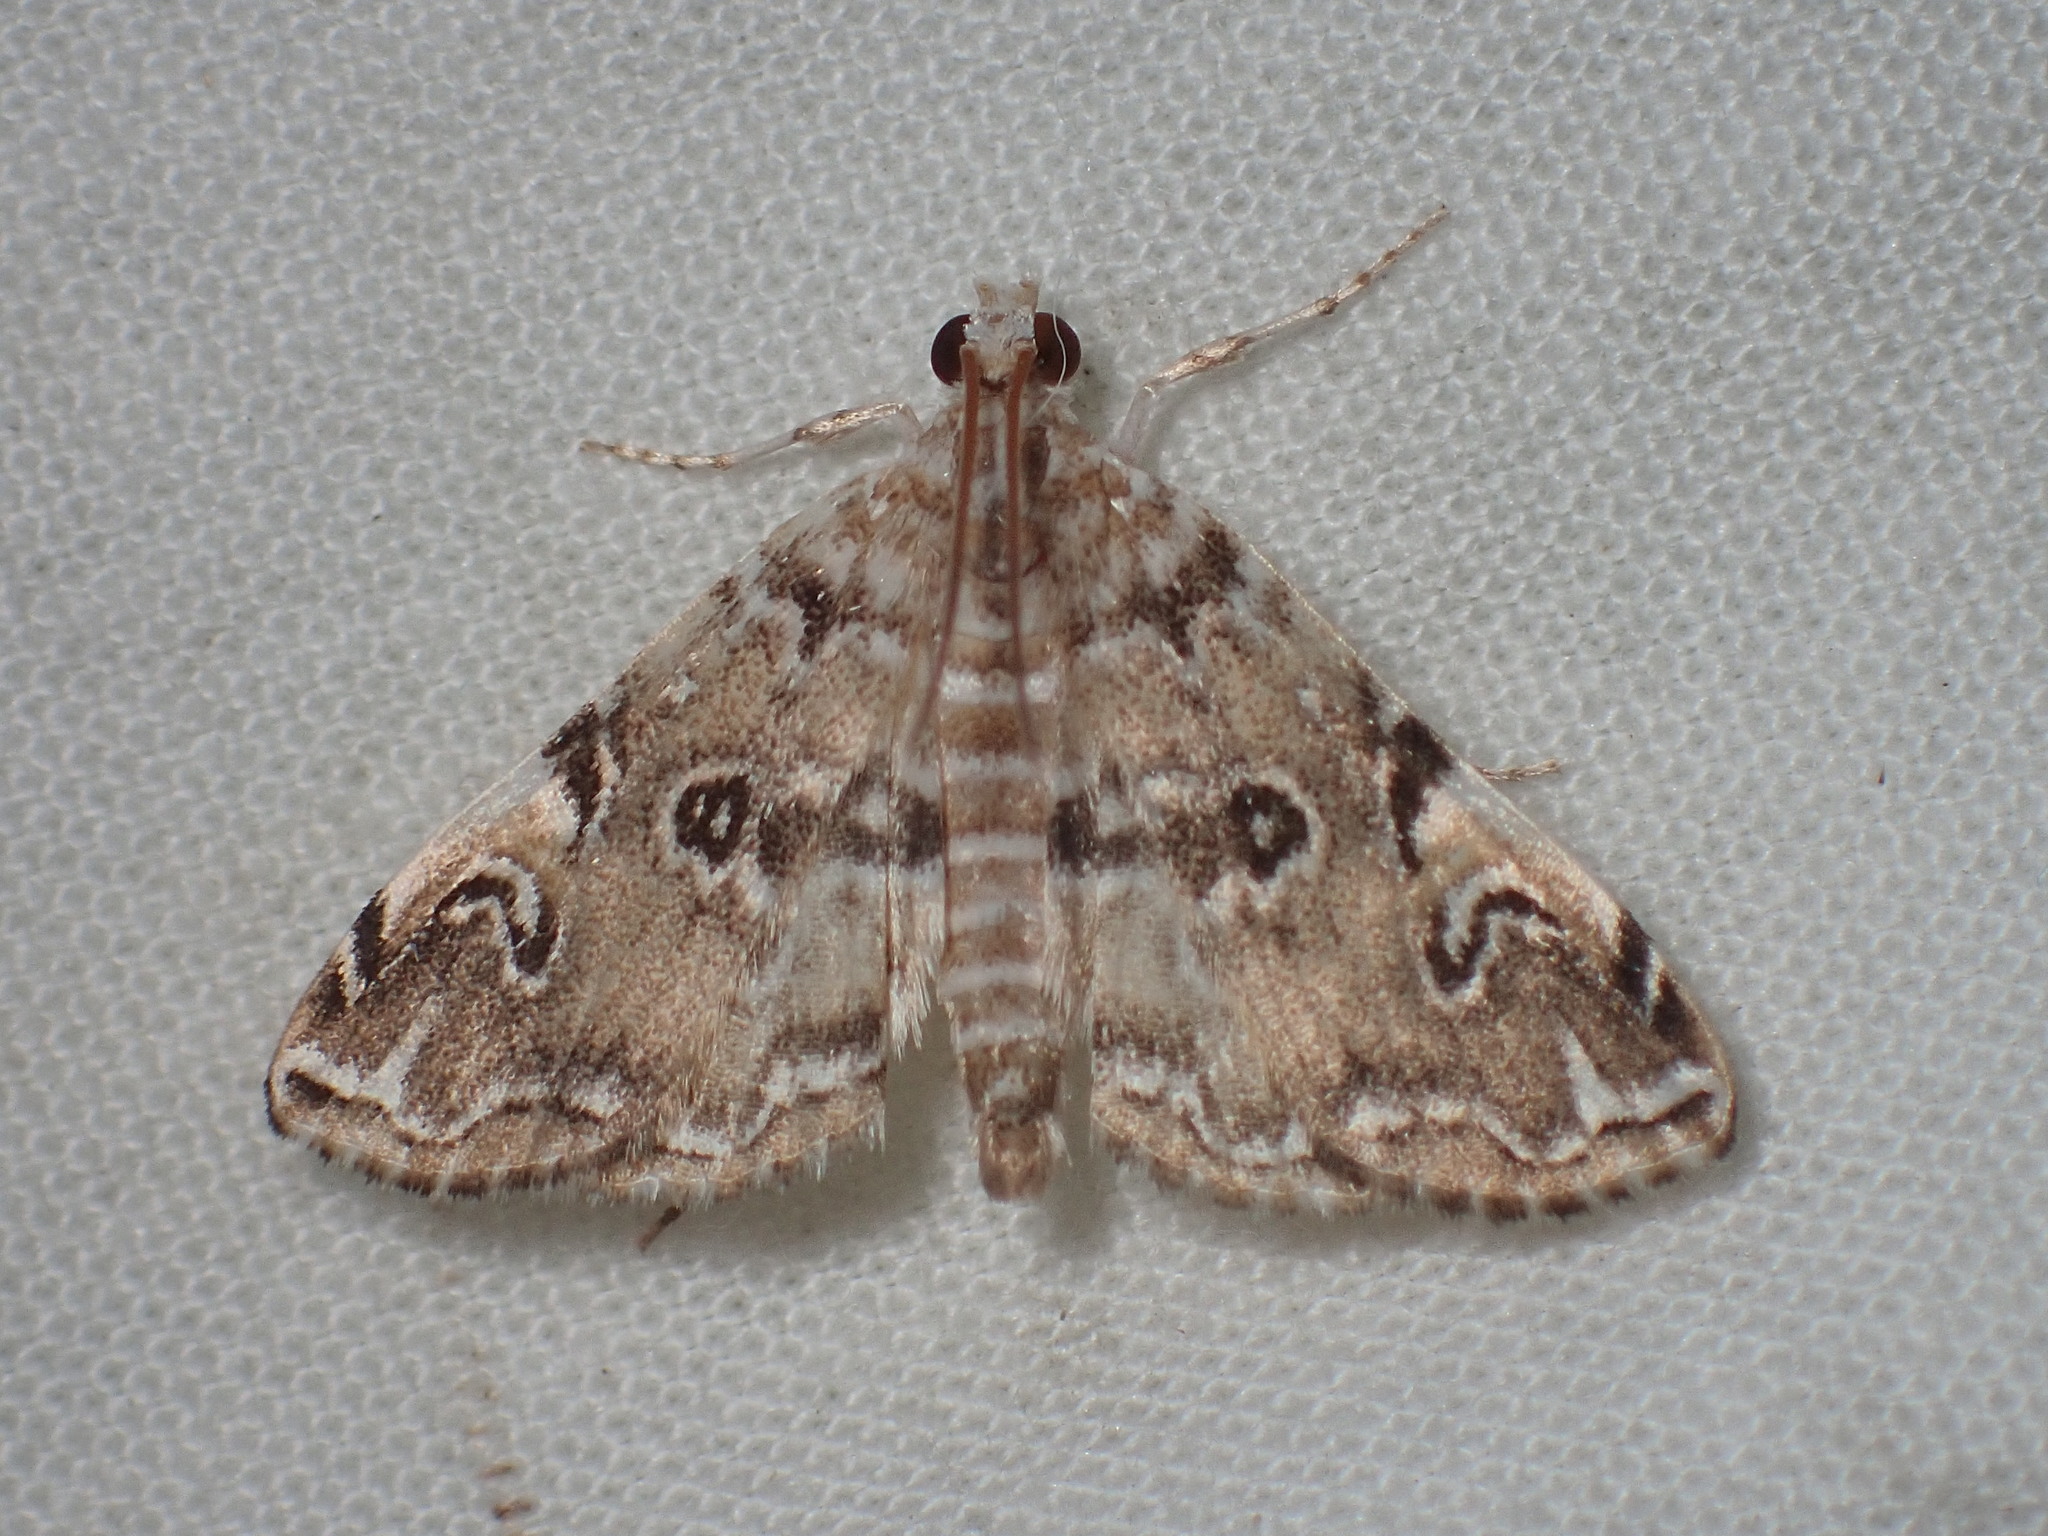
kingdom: Animalia
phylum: Arthropoda
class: Insecta
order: Lepidoptera
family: Crambidae
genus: Elophila
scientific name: Elophila gyralis
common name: Waterlily borer moth
